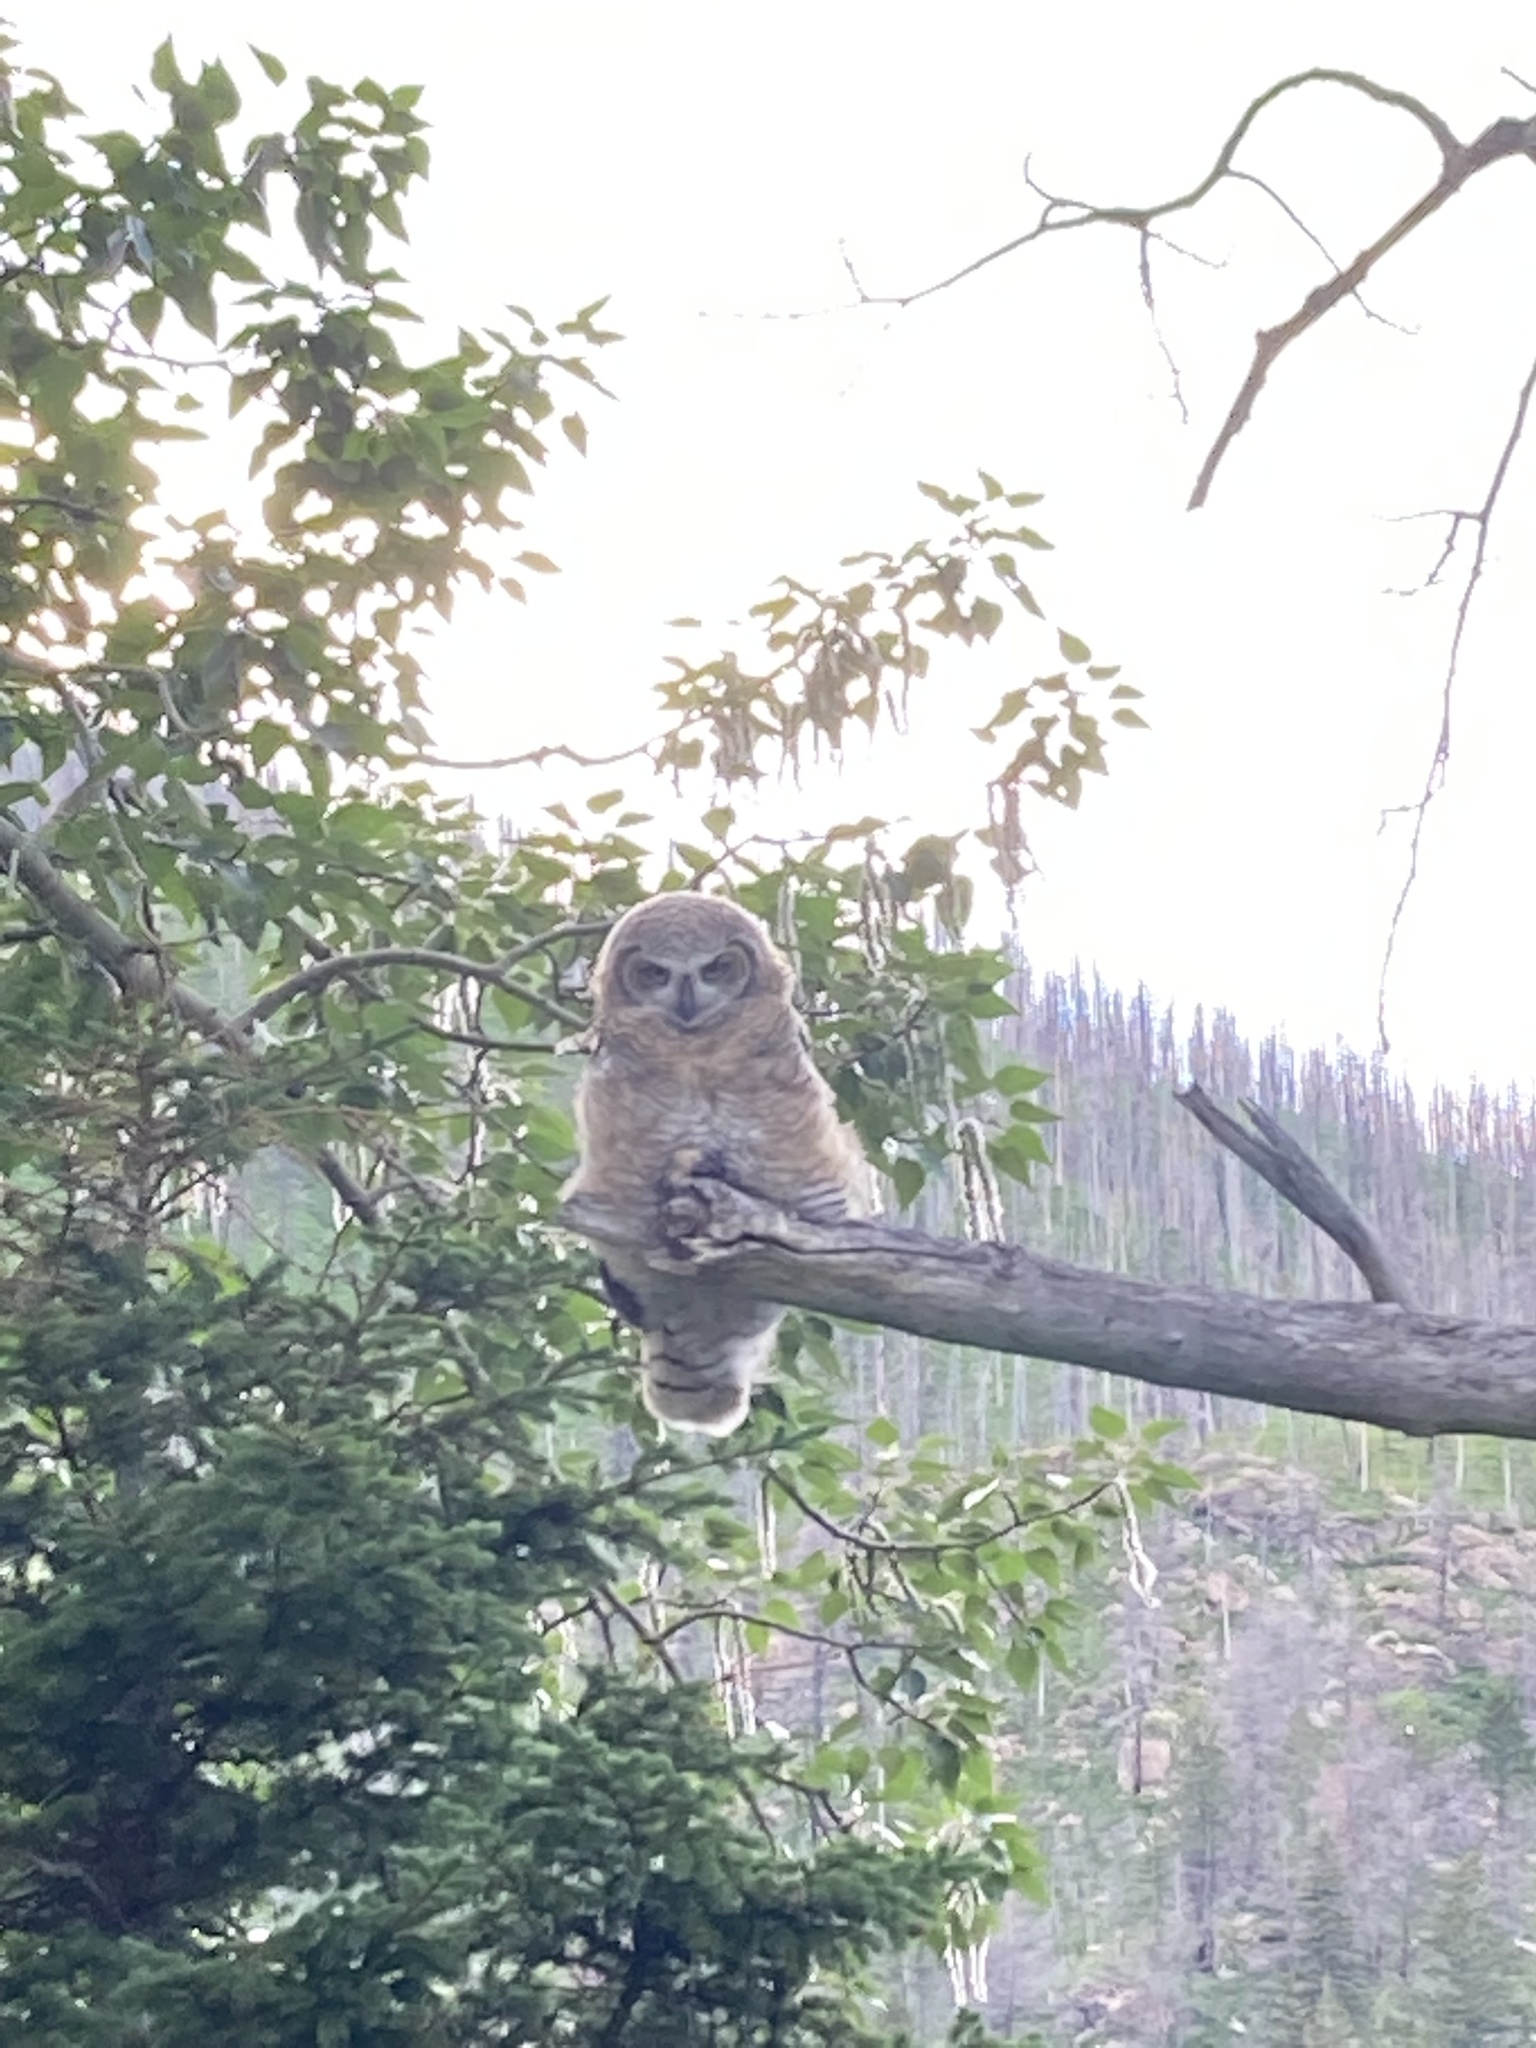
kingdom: Animalia
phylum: Chordata
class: Aves
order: Strigiformes
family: Strigidae
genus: Bubo
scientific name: Bubo virginianus
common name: Great horned owl
